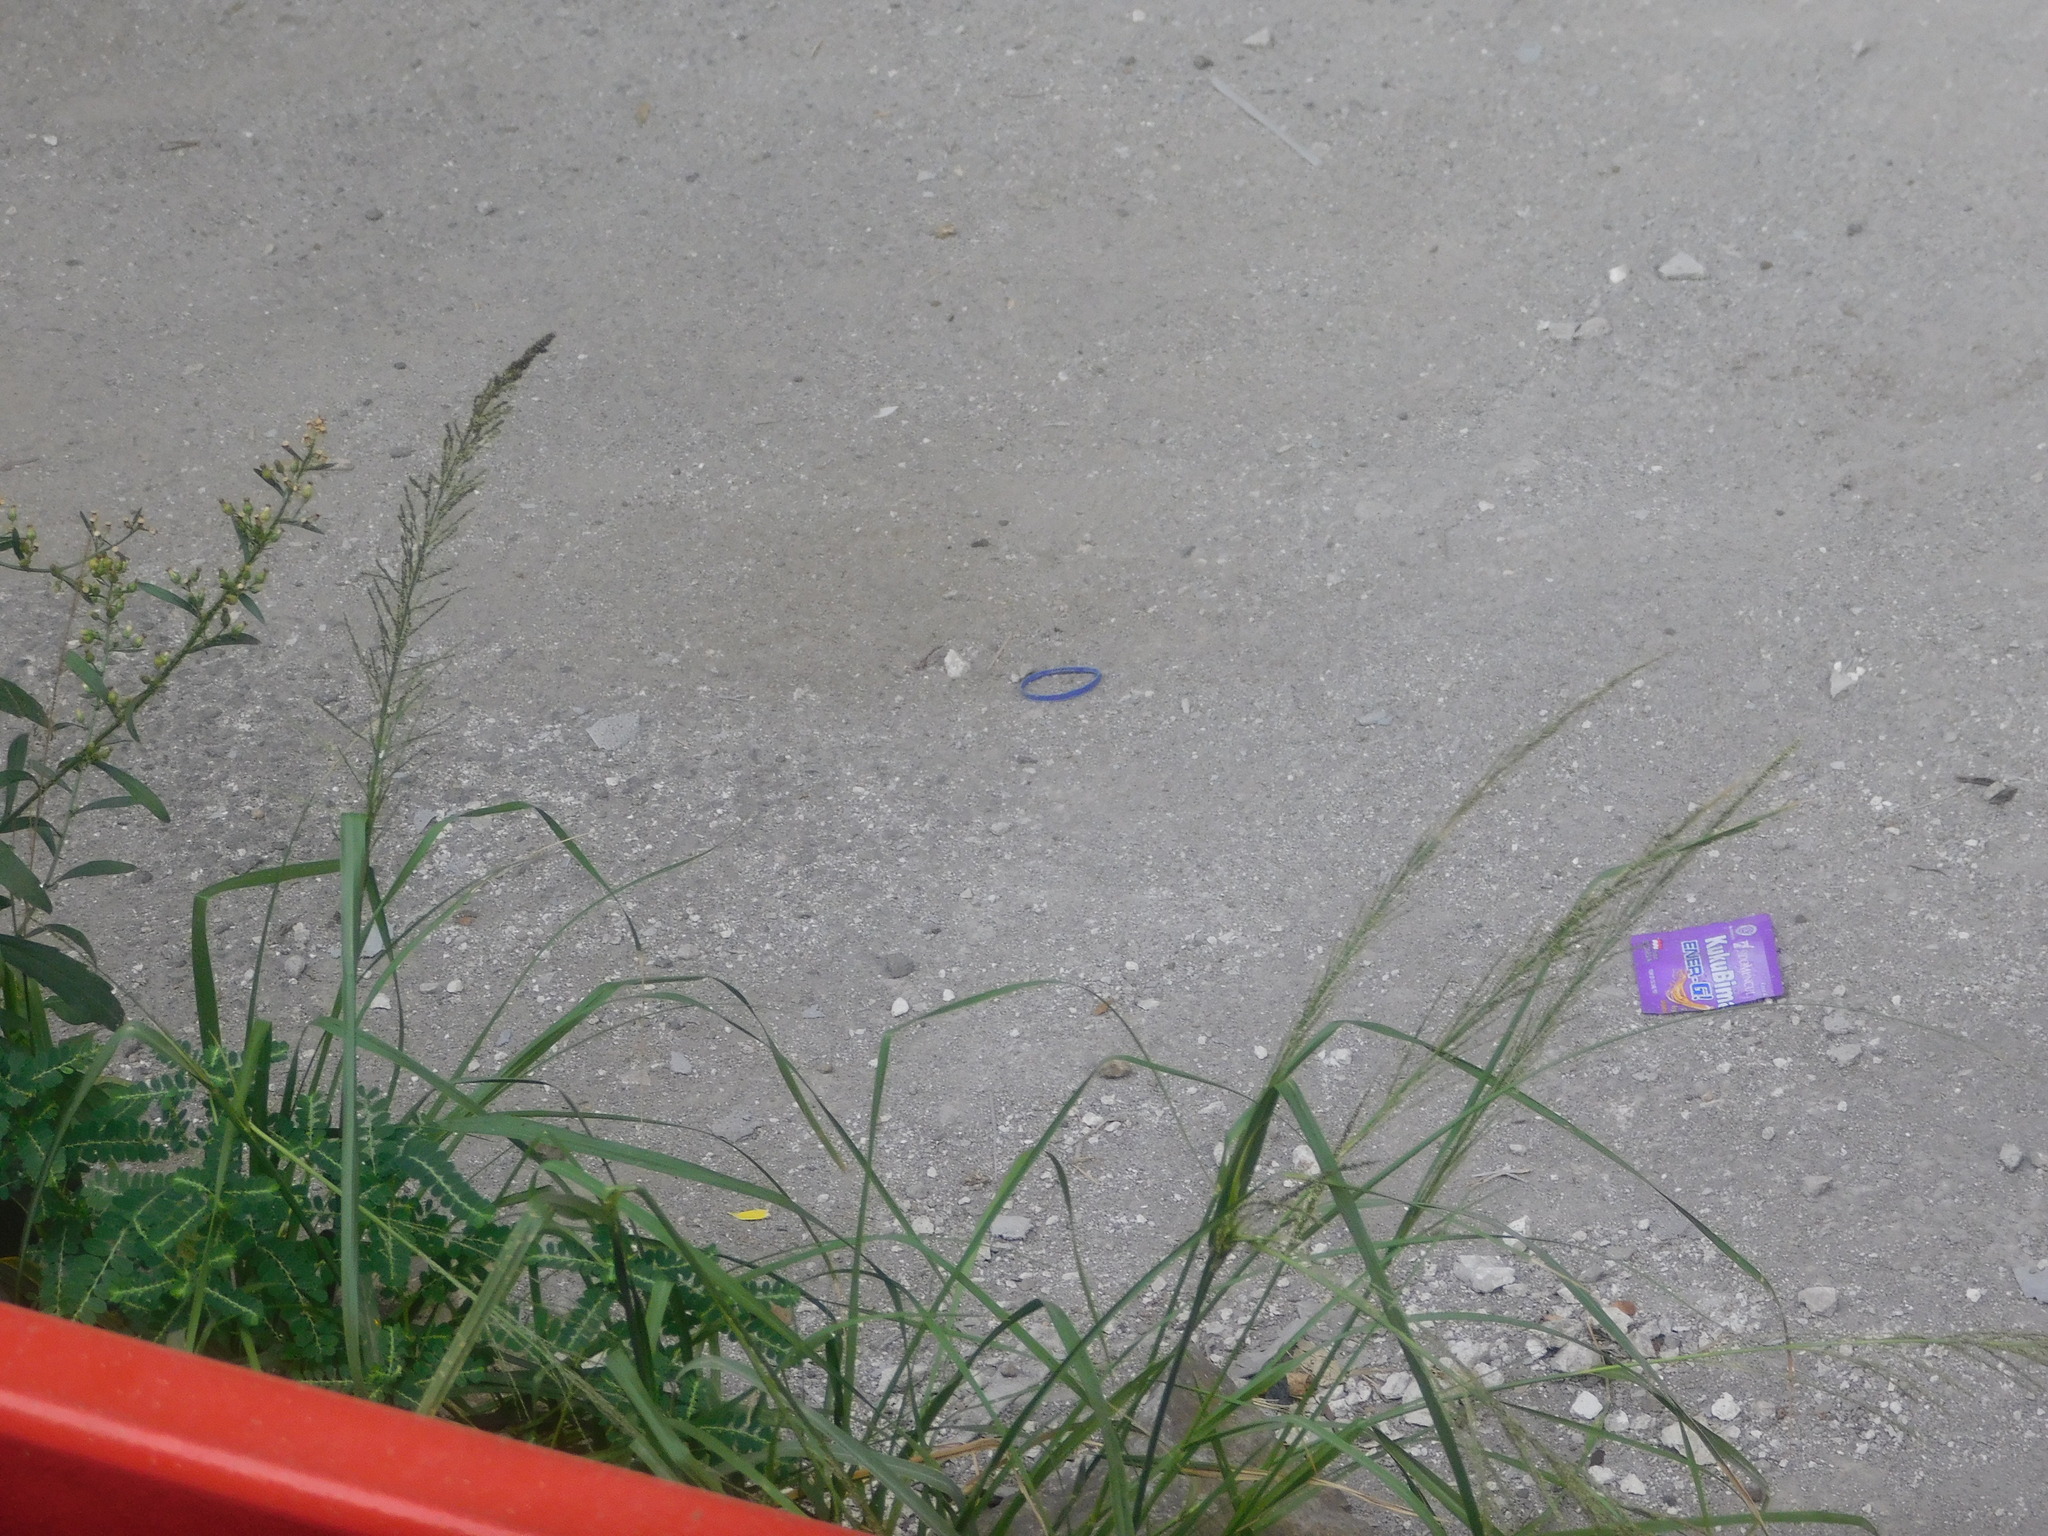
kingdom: Plantae
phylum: Tracheophyta
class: Liliopsida
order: Poales
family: Poaceae
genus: Sporobolus
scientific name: Sporobolus pyramidalis
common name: West indian dropseed
